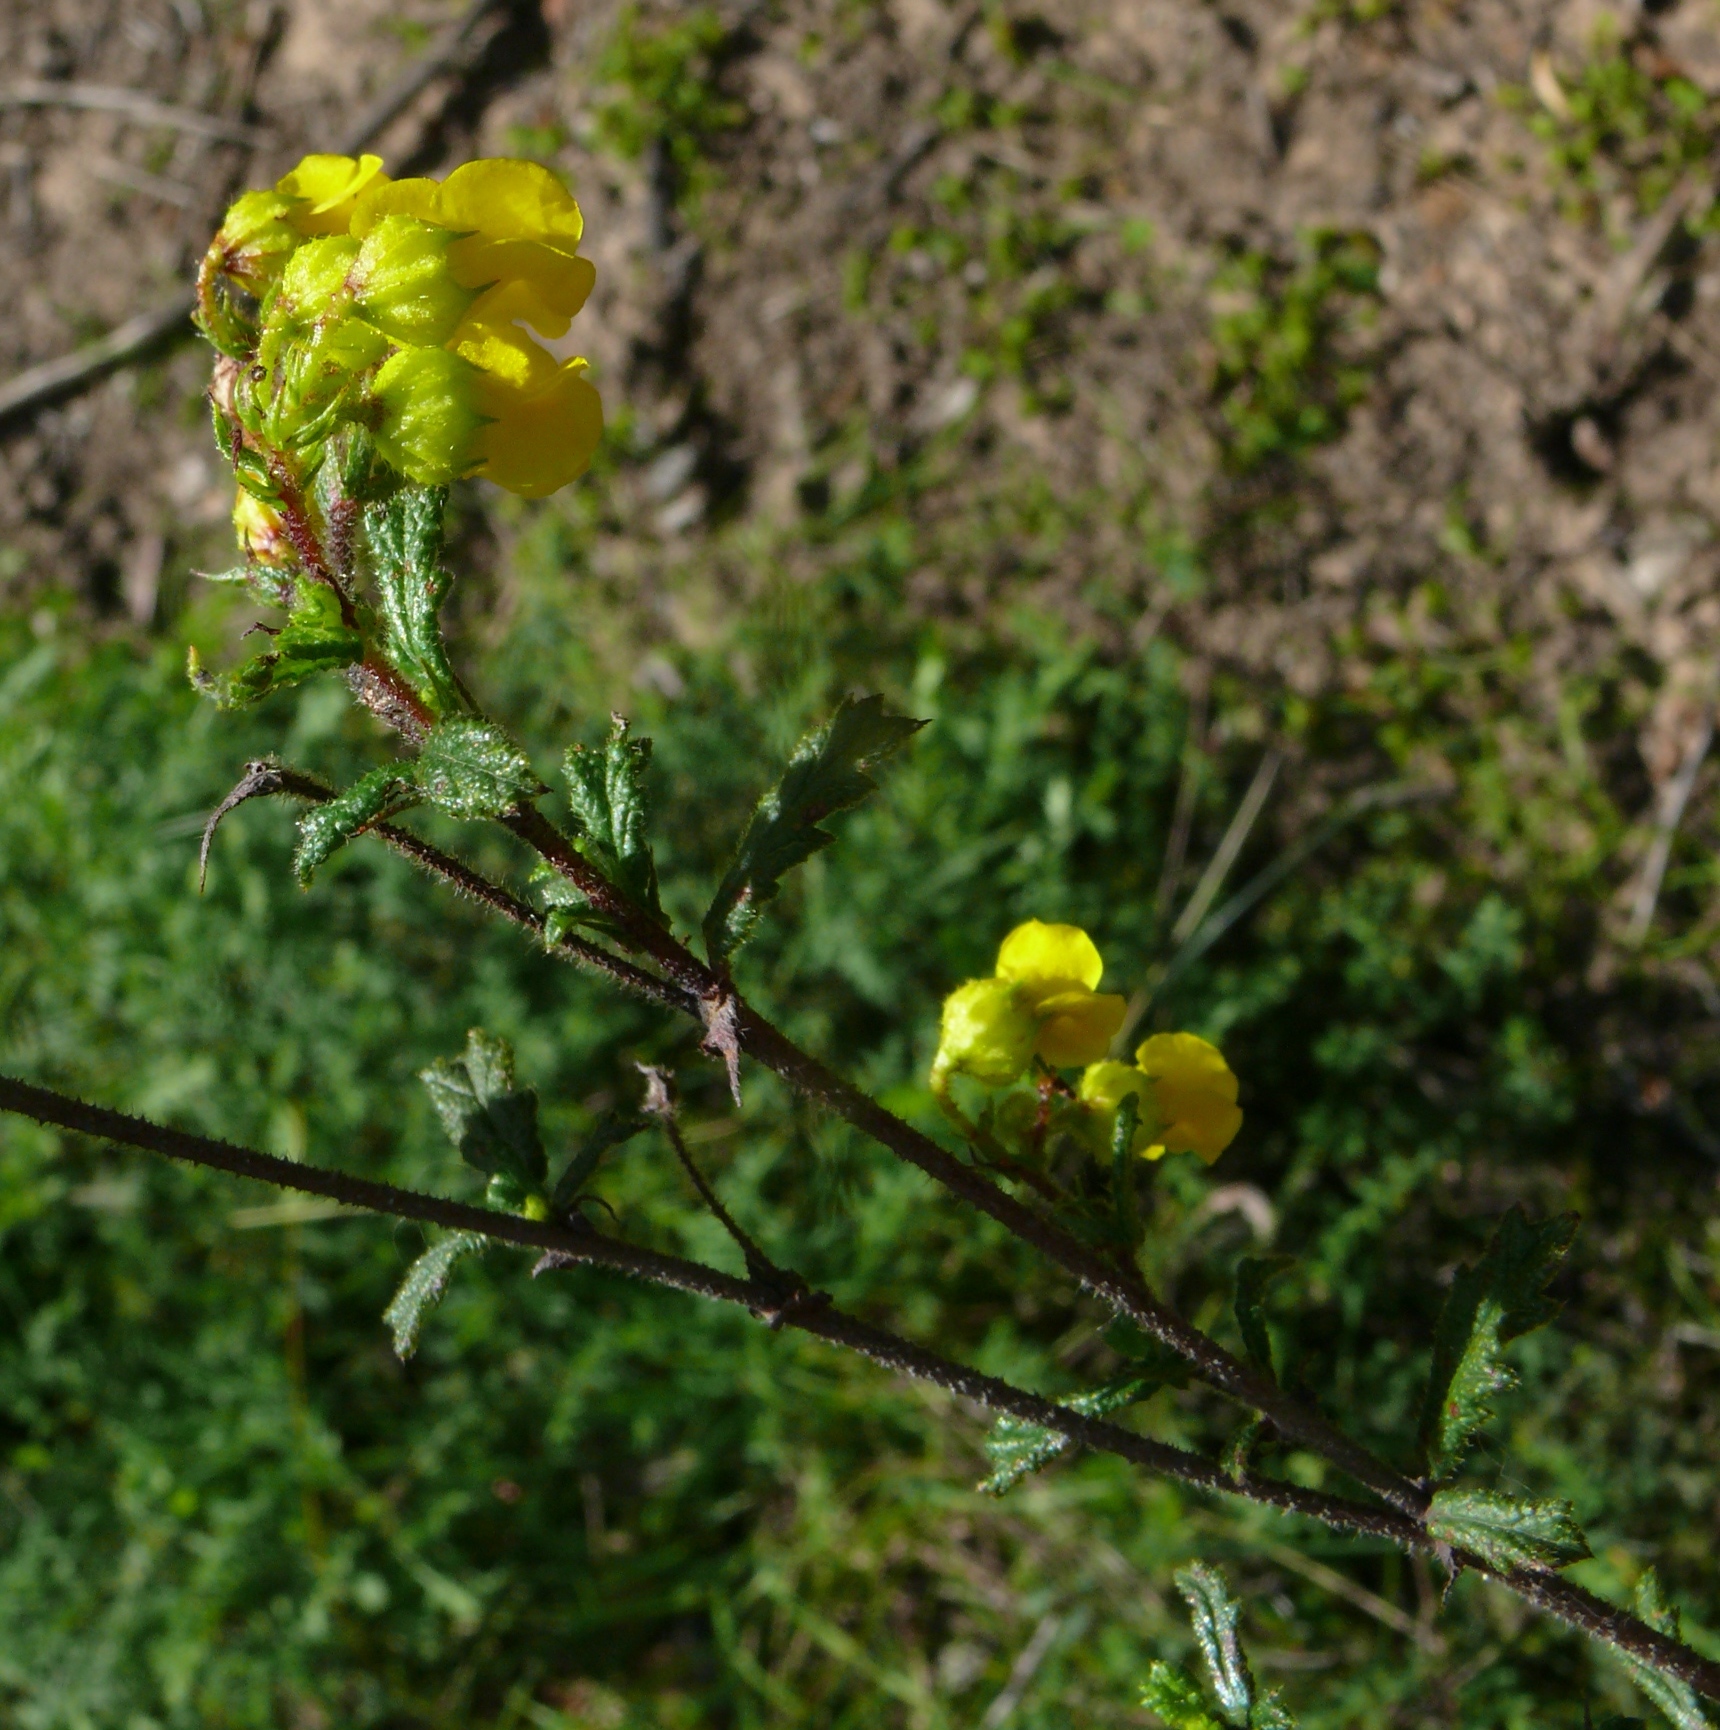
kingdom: Plantae
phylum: Tracheophyta
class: Magnoliopsida
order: Malvales
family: Malvaceae
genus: Hermannia
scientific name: Hermannia aspera
